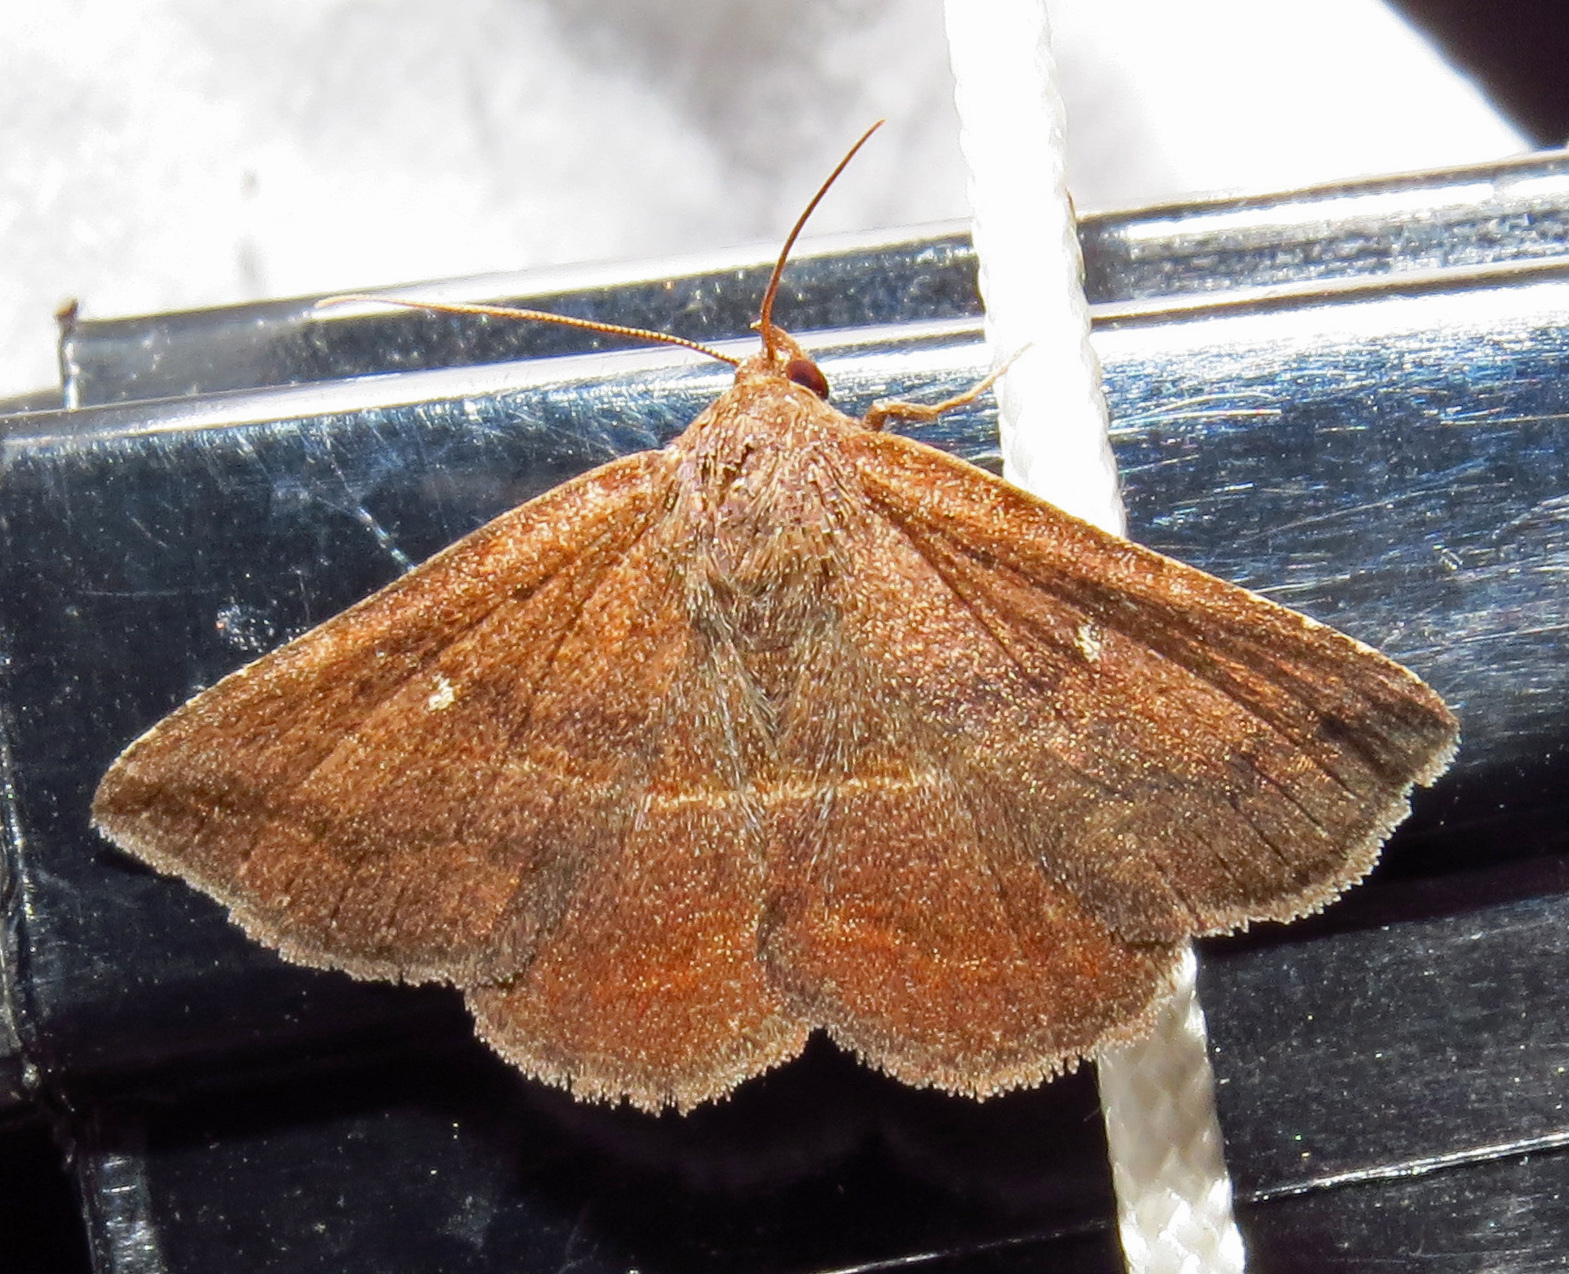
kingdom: Animalia
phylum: Arthropoda
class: Insecta
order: Lepidoptera
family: Erebidae
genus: Lesmone
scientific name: Lesmone detrahens
